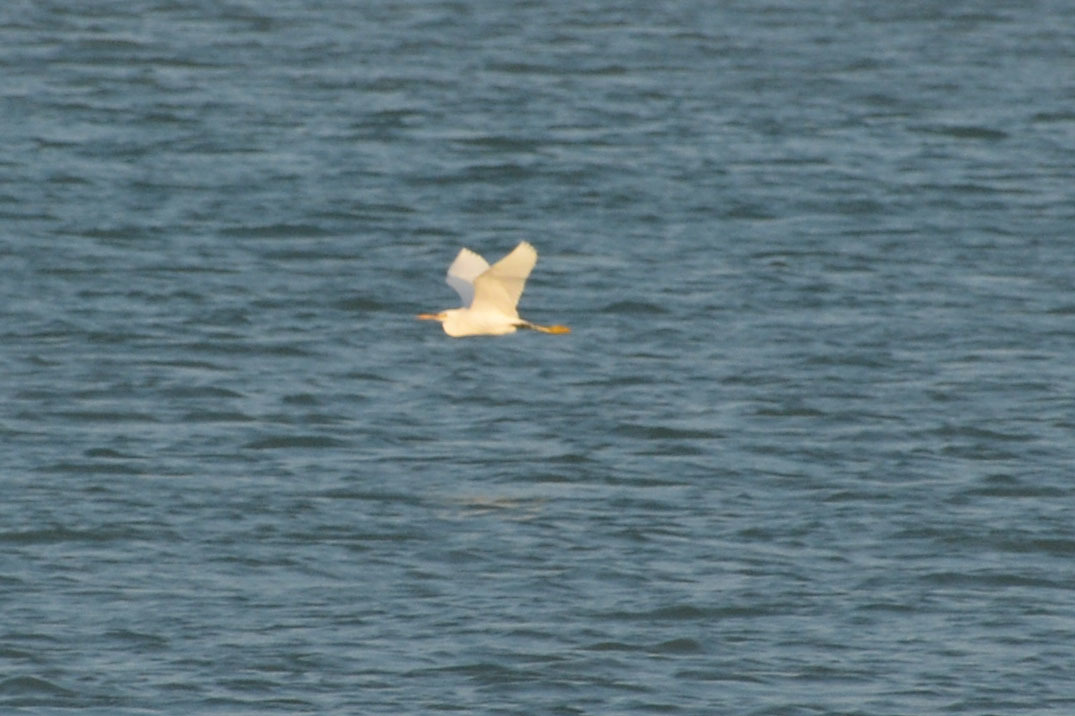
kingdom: Animalia
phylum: Chordata
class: Aves
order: Pelecaniformes
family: Ardeidae
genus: Egretta
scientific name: Egretta gularis
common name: Western reef-heron
